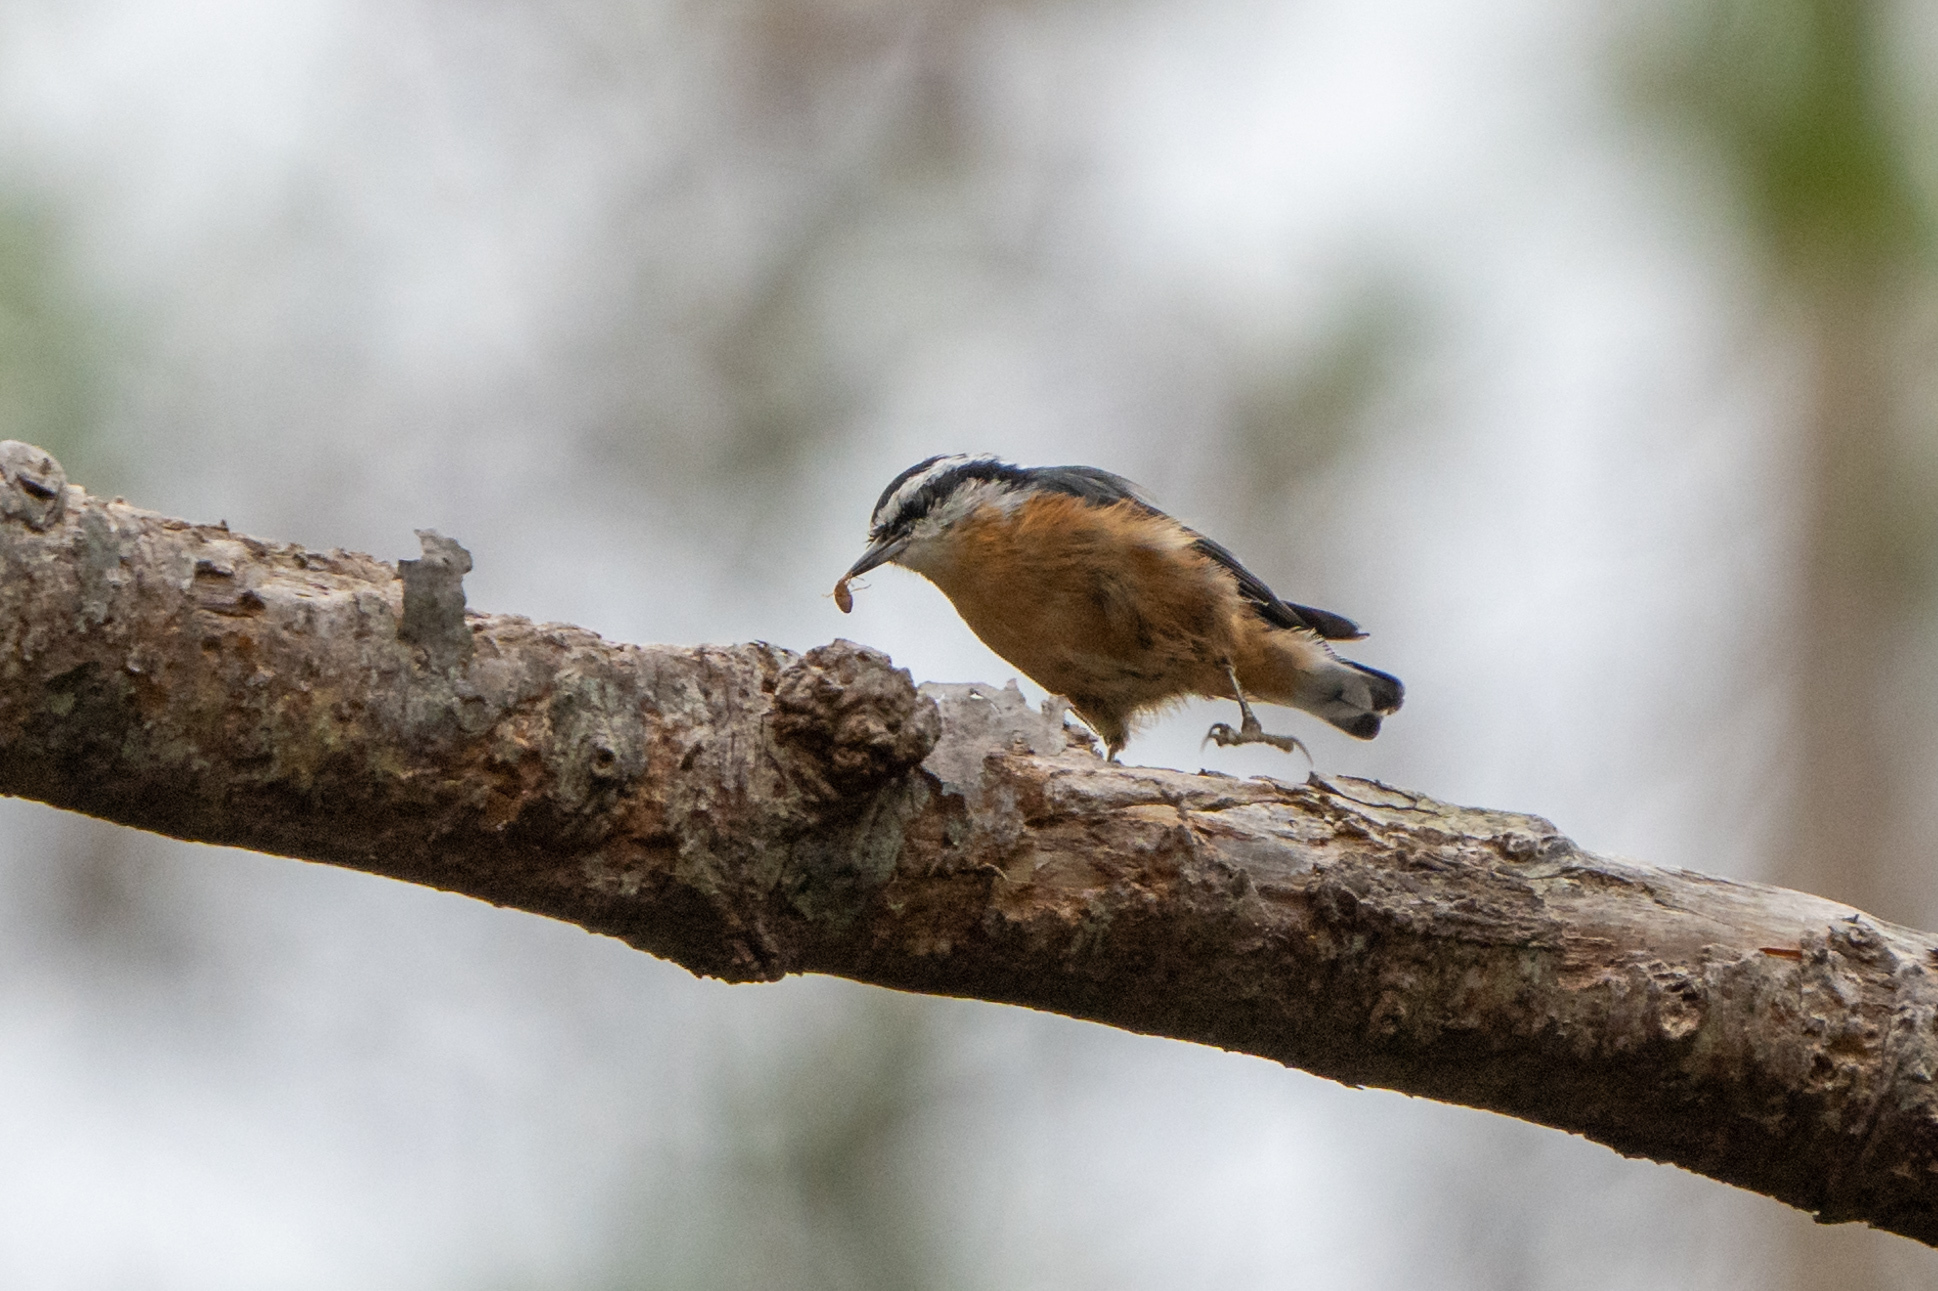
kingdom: Animalia
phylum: Chordata
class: Aves
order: Passeriformes
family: Sittidae
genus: Sitta
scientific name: Sitta canadensis
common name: Red-breasted nuthatch
